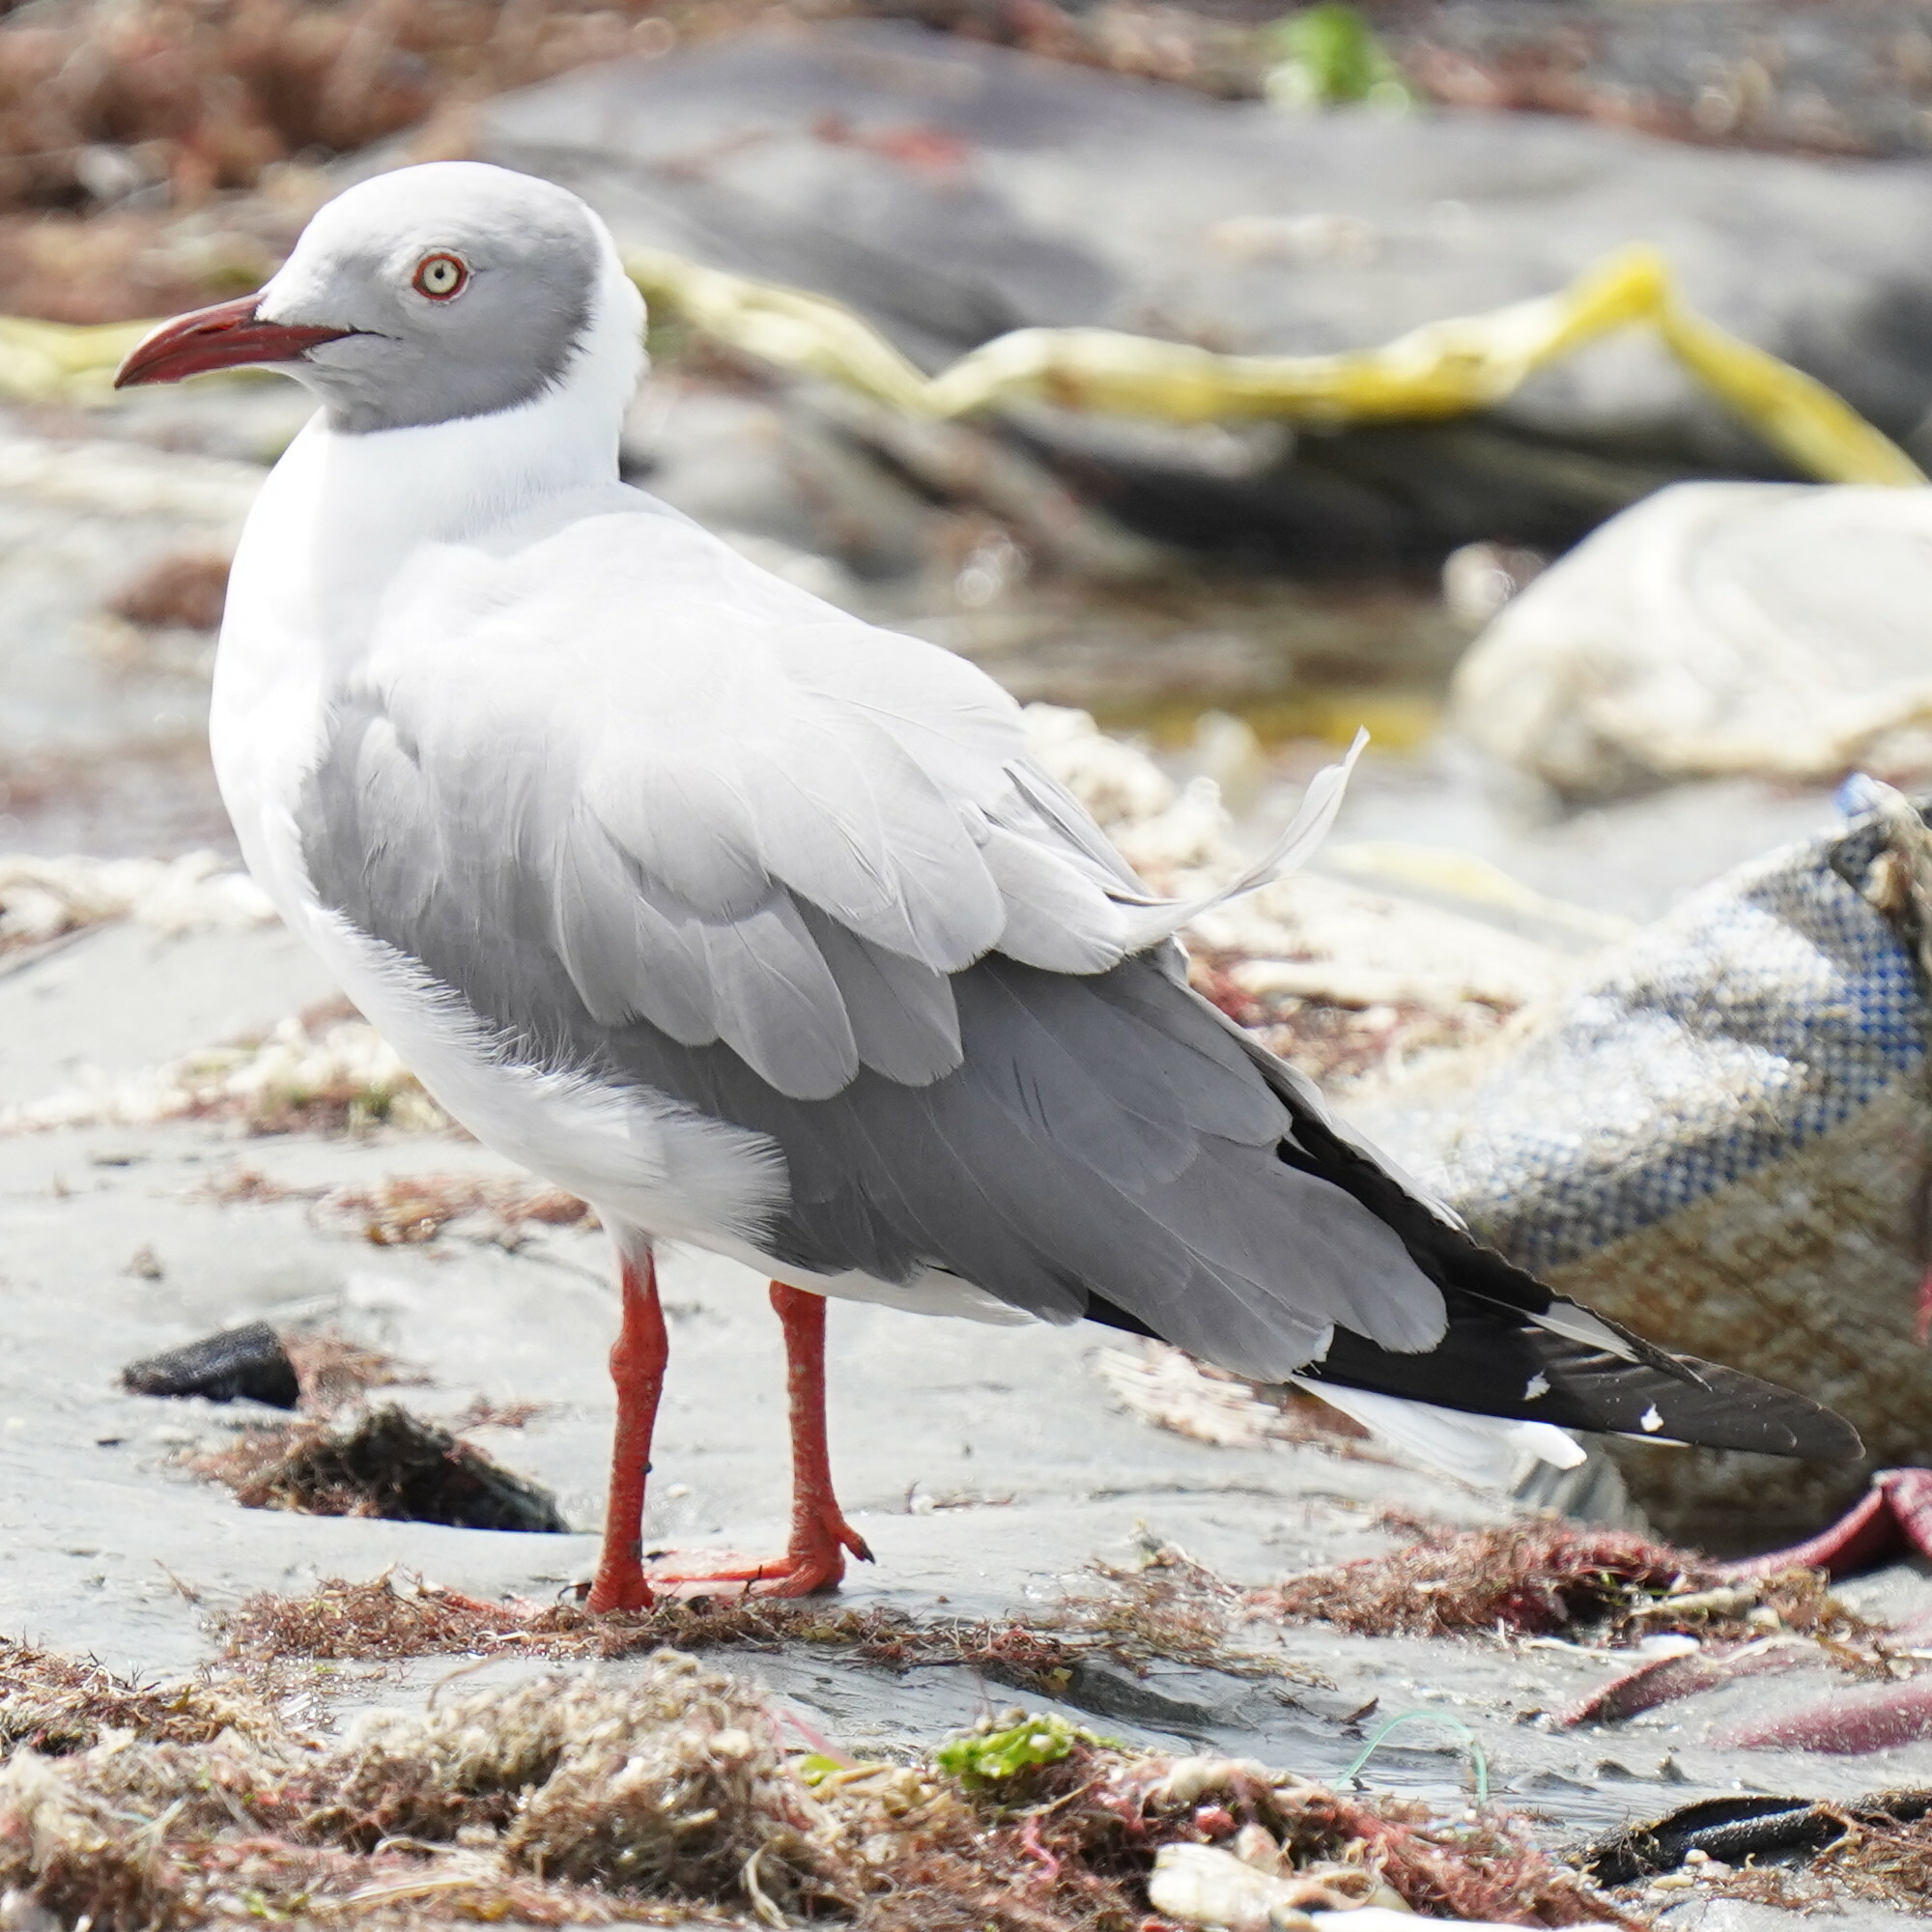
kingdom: Animalia
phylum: Chordata
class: Aves
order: Charadriiformes
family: Laridae
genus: Chroicocephalus
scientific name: Chroicocephalus cirrocephalus
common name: Grey-headed gull
